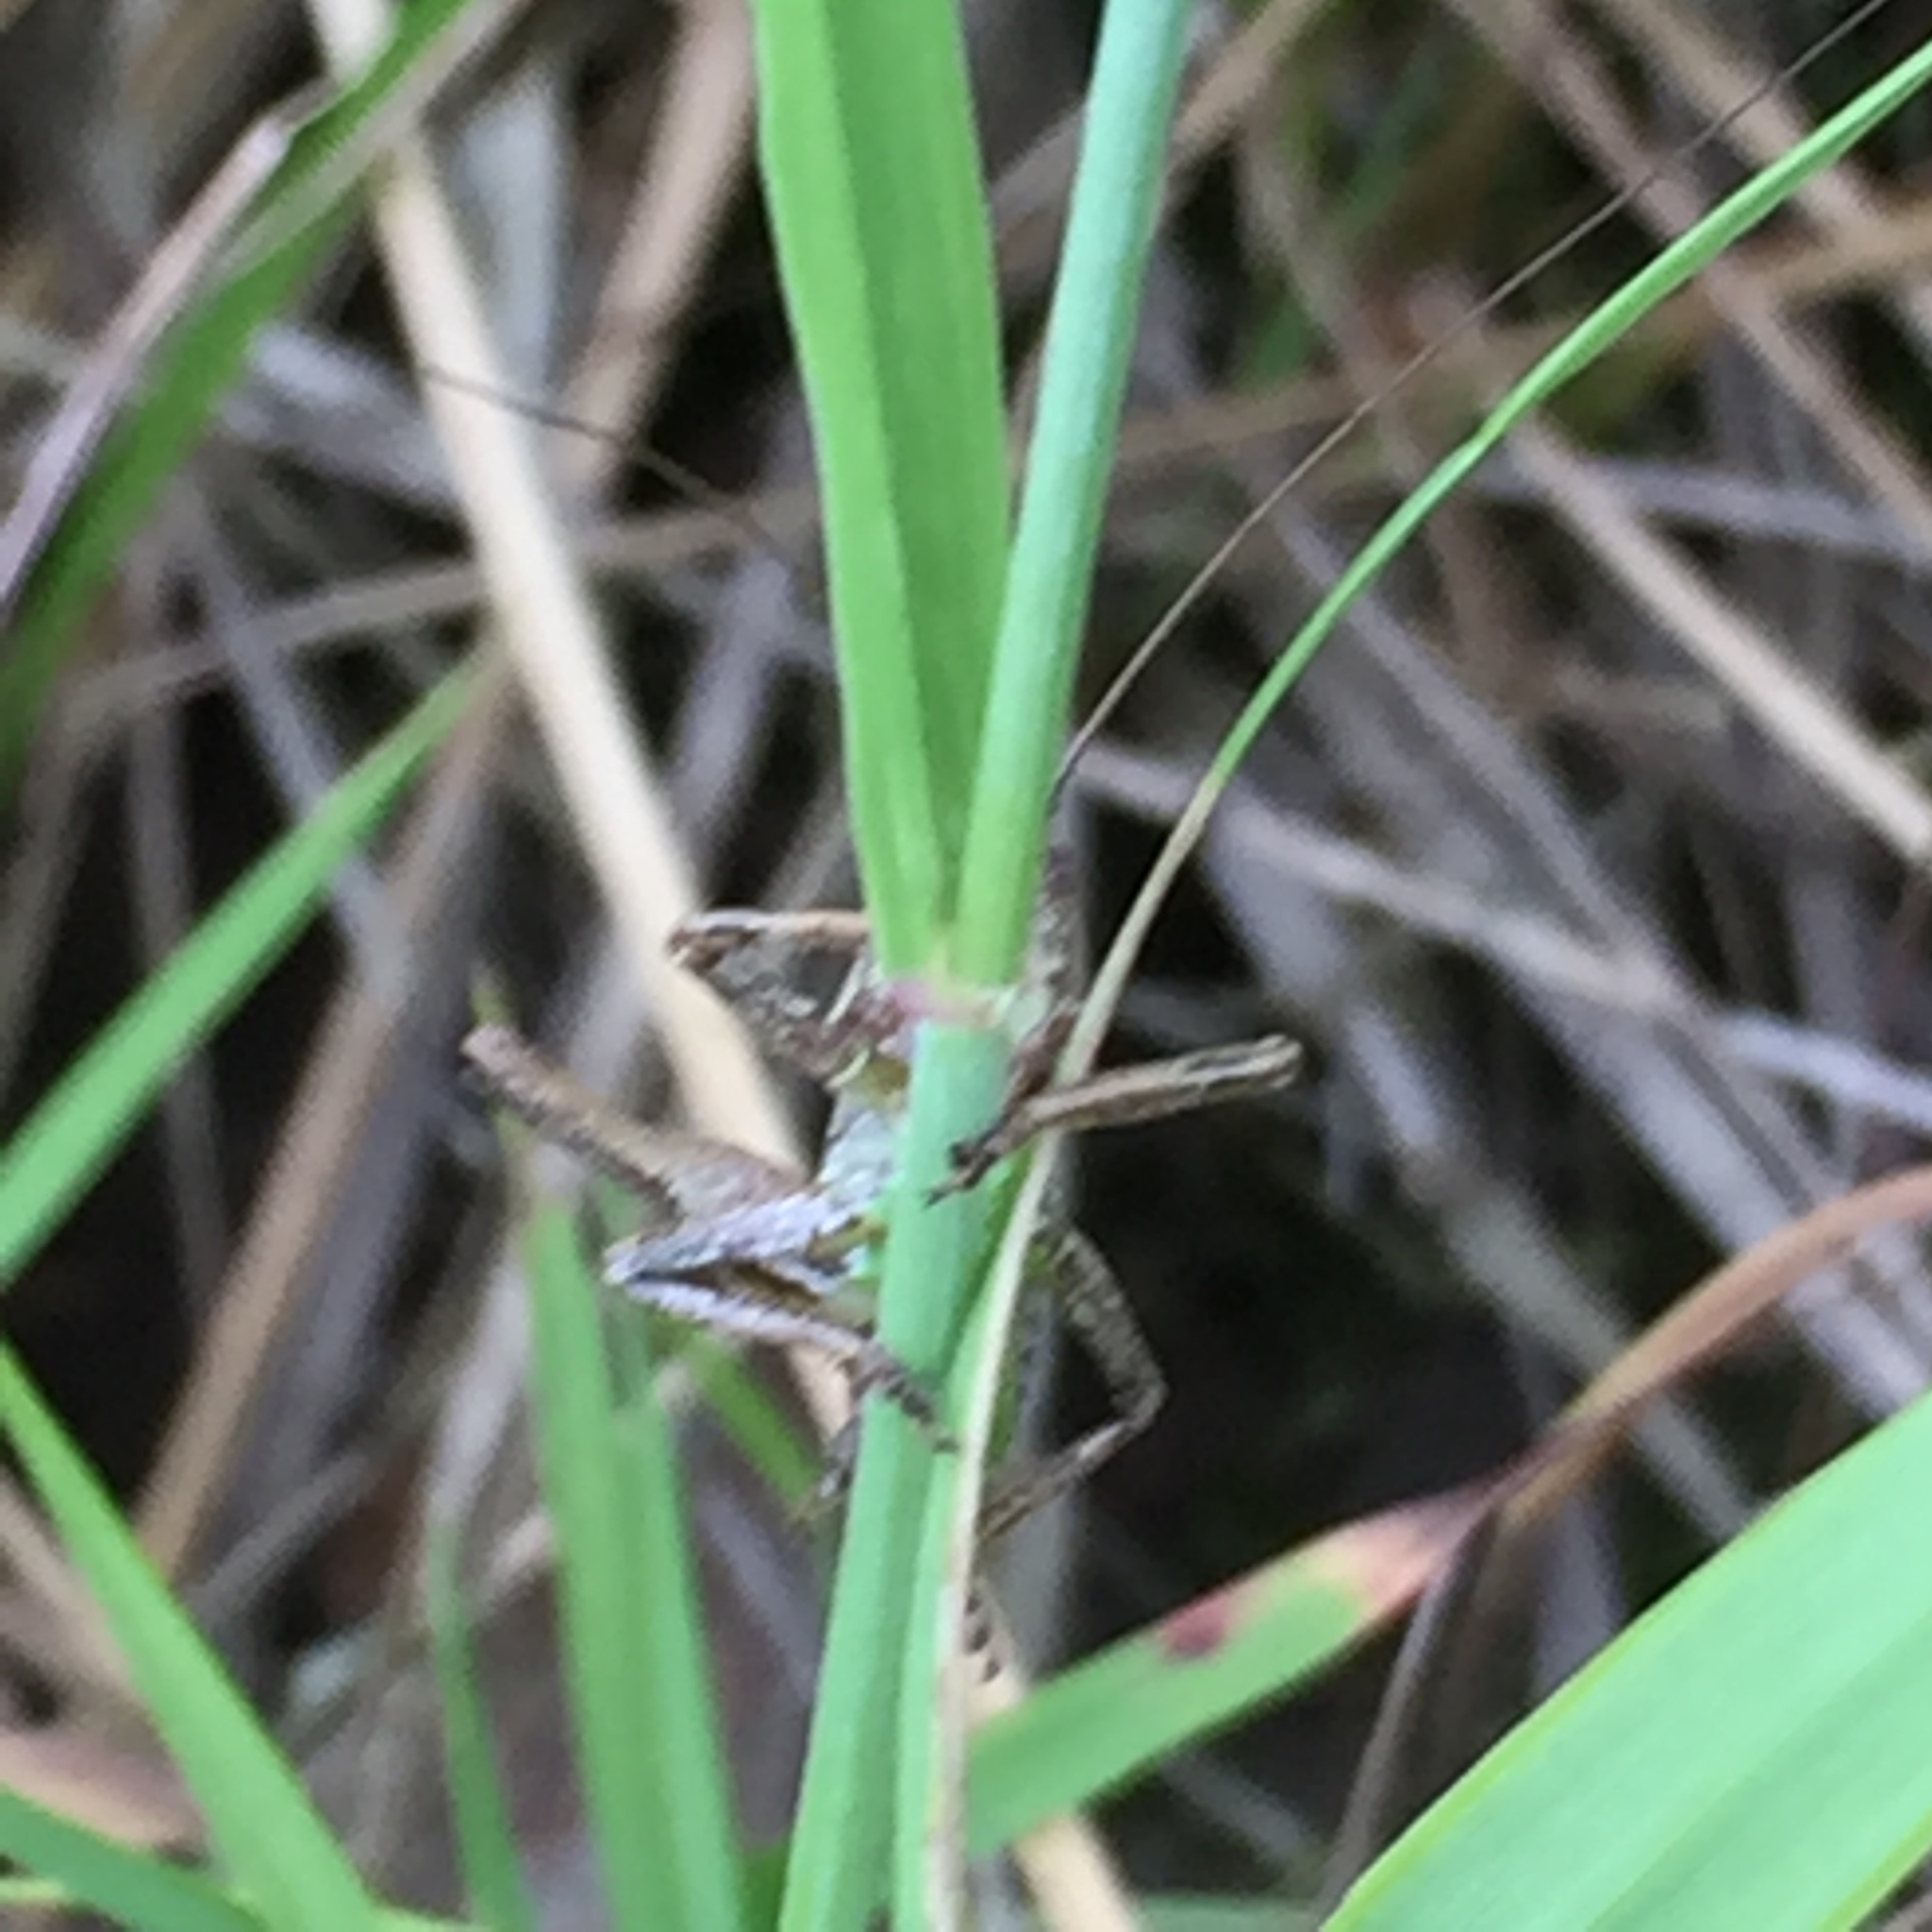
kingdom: Animalia
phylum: Arthropoda
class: Insecta
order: Orthoptera
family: Tettigoniidae
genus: Pholidoptera
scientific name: Pholidoptera griseoaptera
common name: Dark bush-cricket
